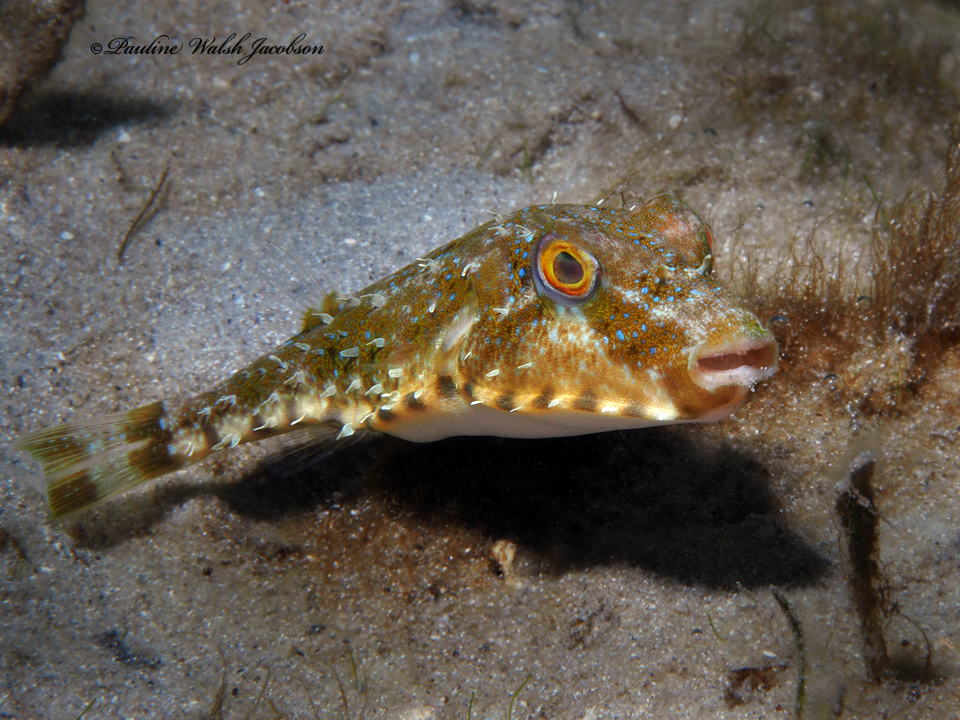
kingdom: Animalia
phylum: Chordata
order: Tetraodontiformes
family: Tetraodontidae
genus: Sphoeroides
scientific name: Sphoeroides spengleri
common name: Bandtail puffer
